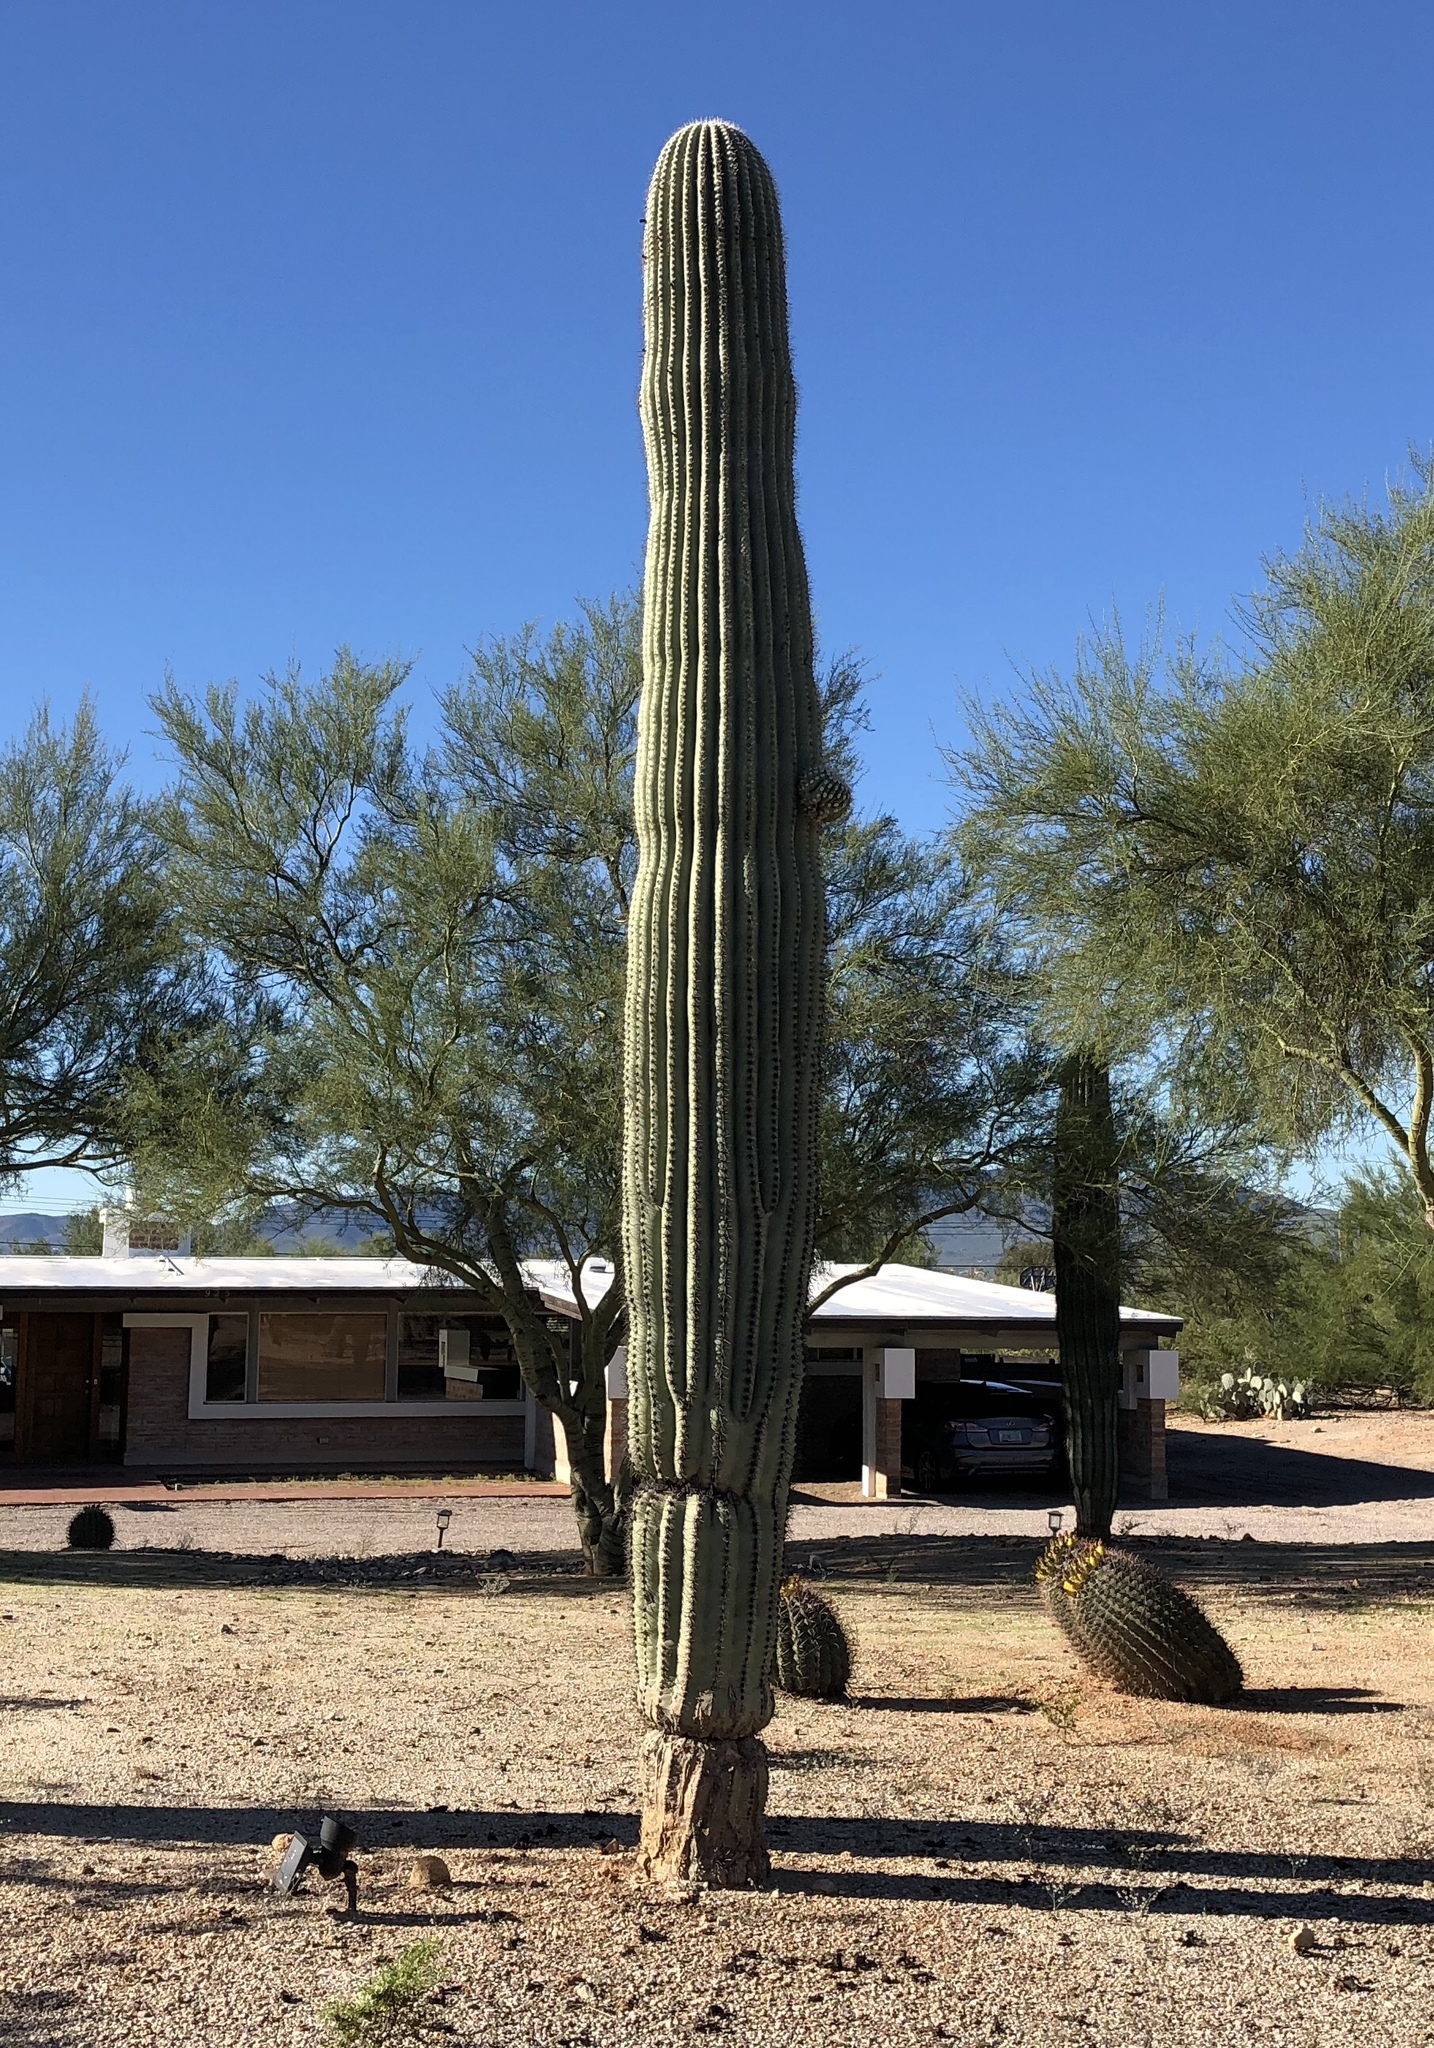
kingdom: Plantae
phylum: Tracheophyta
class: Magnoliopsida
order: Caryophyllales
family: Cactaceae
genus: Carnegiea
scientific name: Carnegiea gigantea
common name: Saguaro
